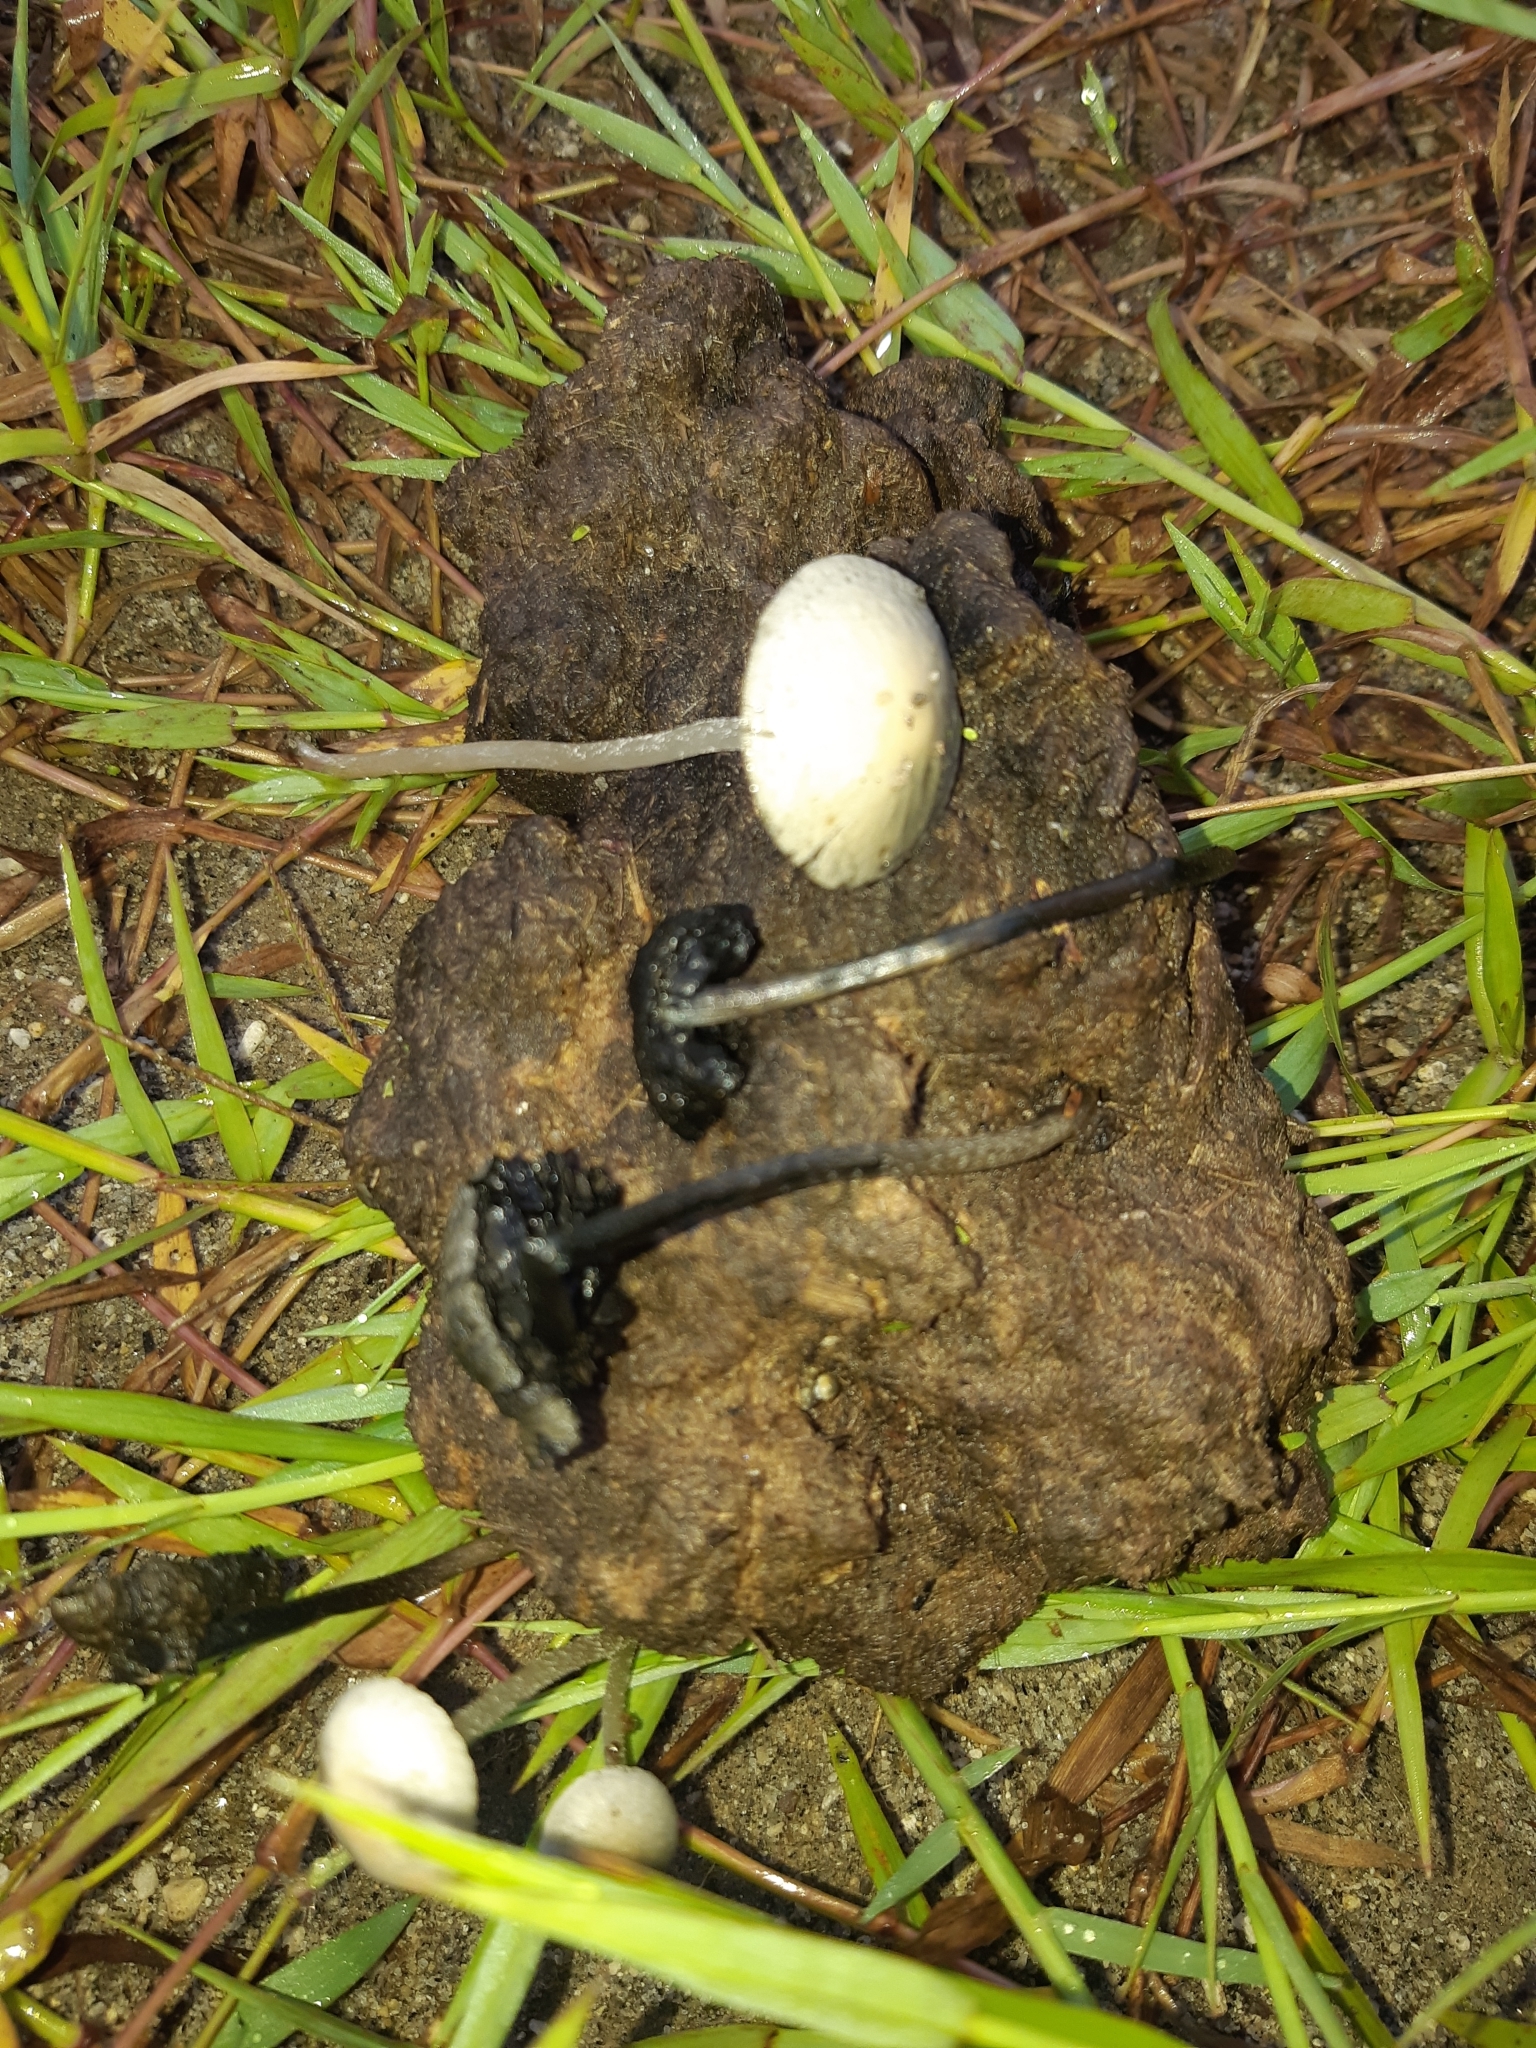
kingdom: Fungi
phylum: Basidiomycota
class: Agaricomycetes
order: Agaricales
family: Bolbitiaceae
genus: Panaeolus
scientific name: Panaeolus cyanescens
